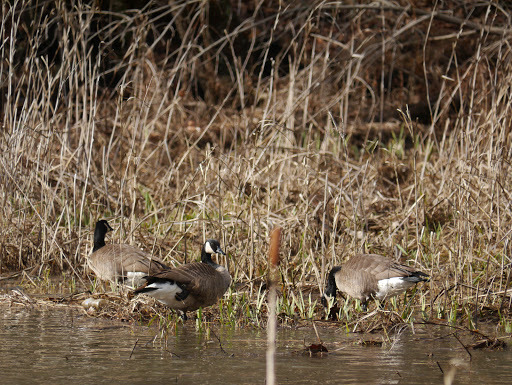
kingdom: Animalia
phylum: Chordata
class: Aves
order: Anseriformes
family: Anatidae
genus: Branta
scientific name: Branta canadensis
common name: Canada goose
